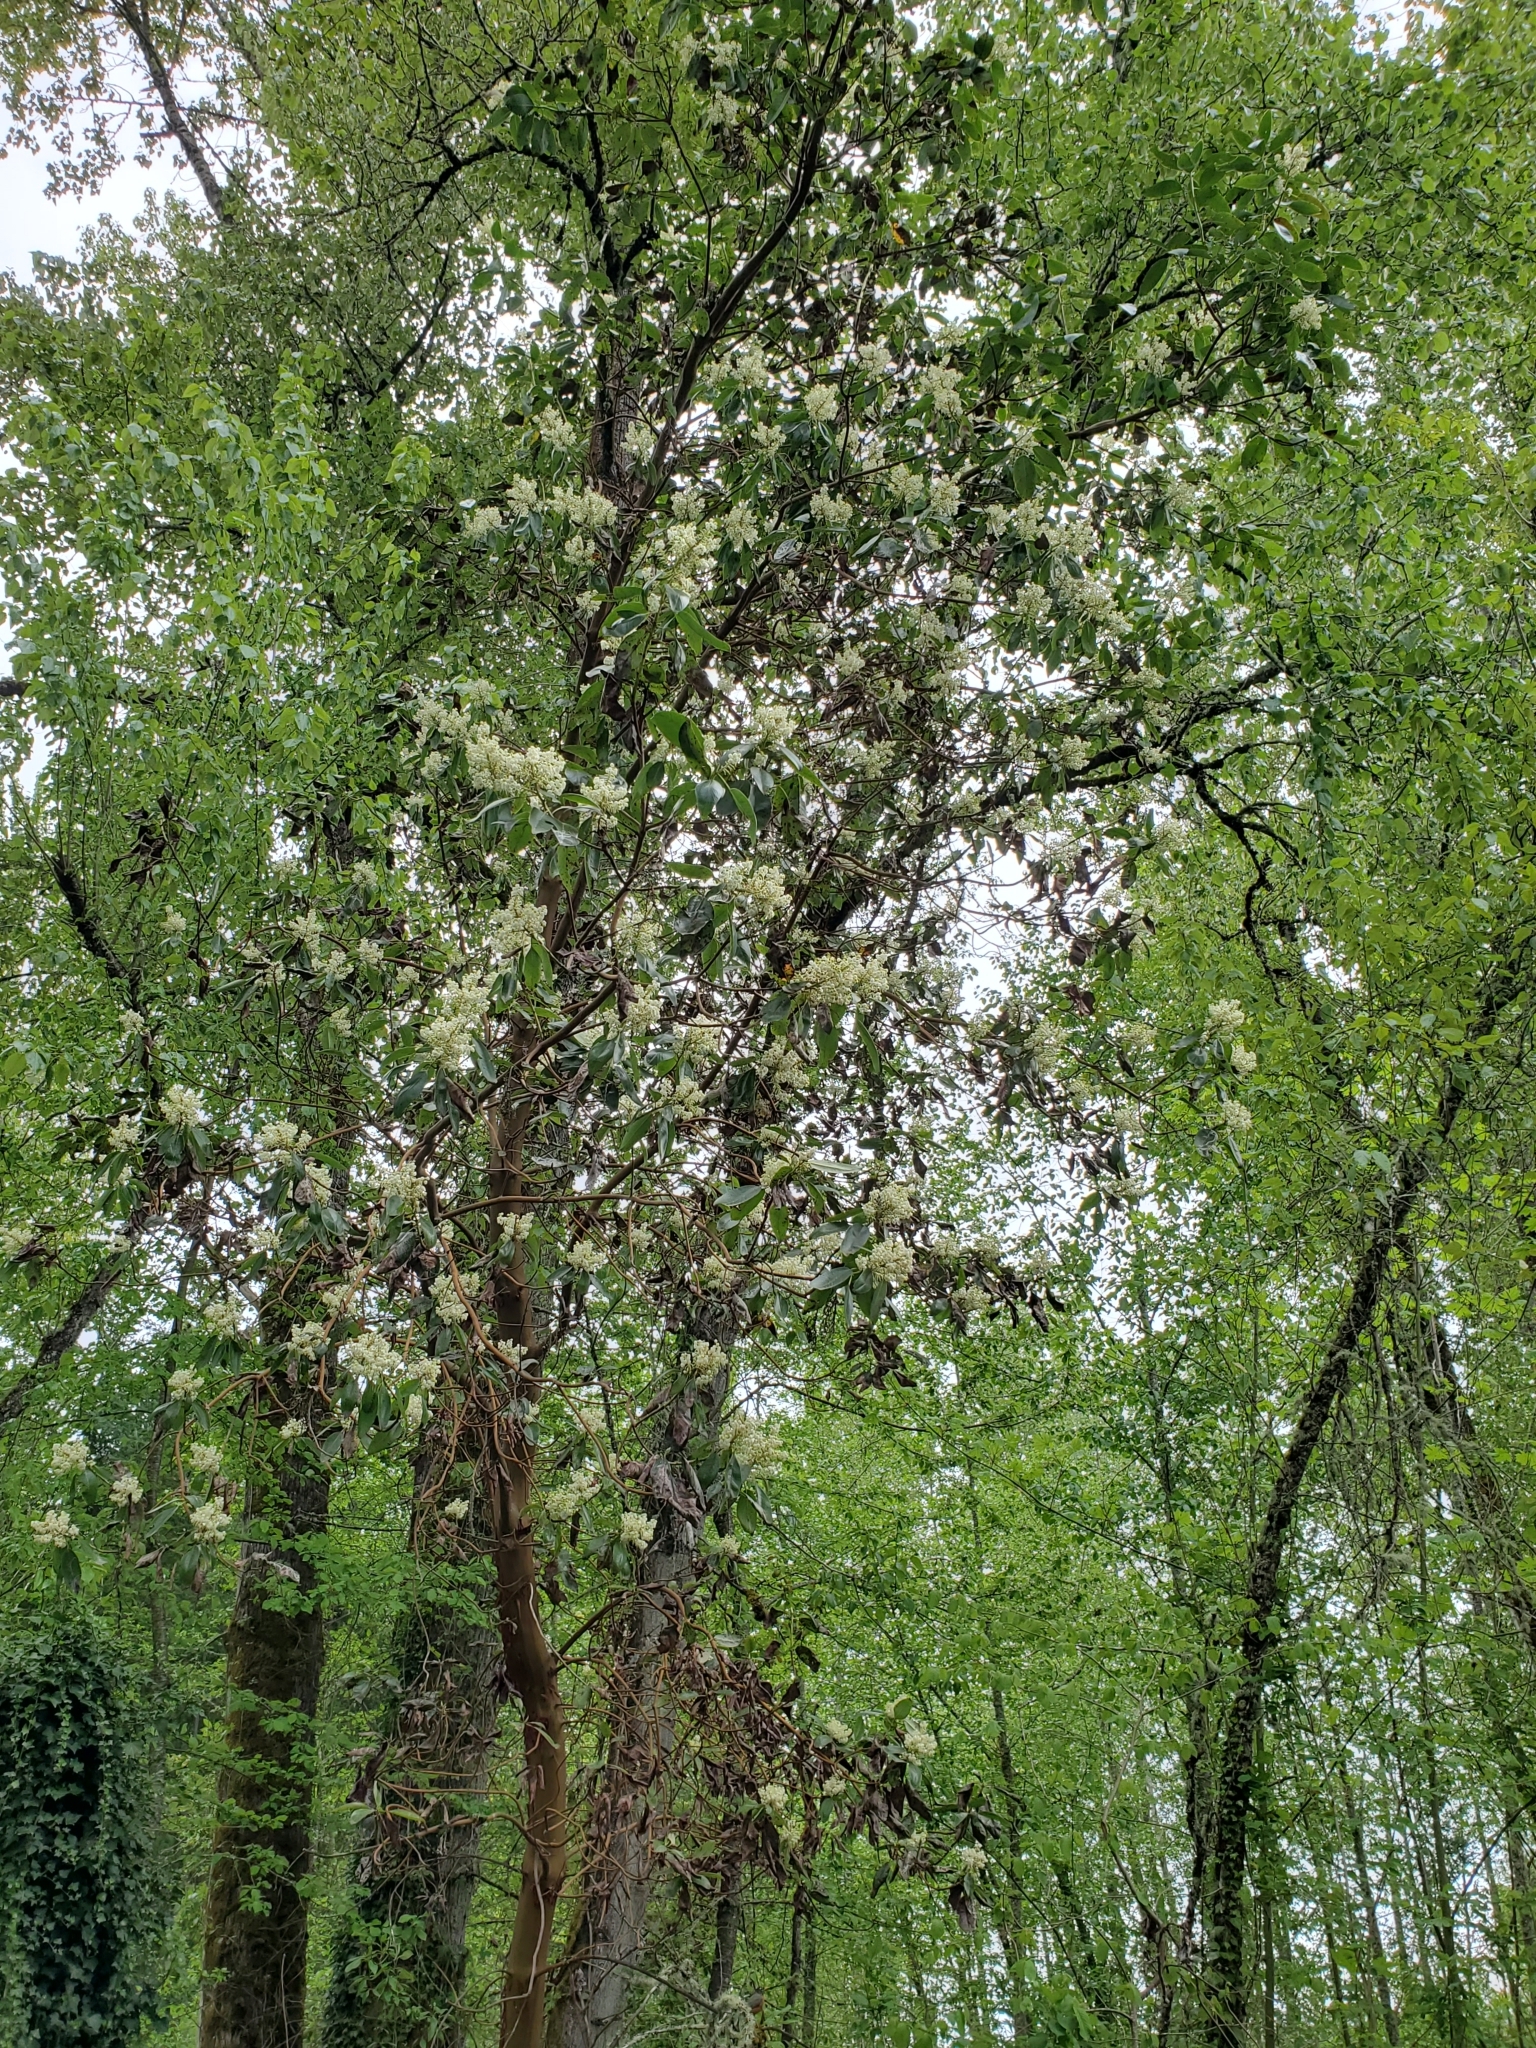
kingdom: Plantae
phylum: Tracheophyta
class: Magnoliopsida
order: Ericales
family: Ericaceae
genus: Arbutus
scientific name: Arbutus menziesii
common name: Pacific madrone
